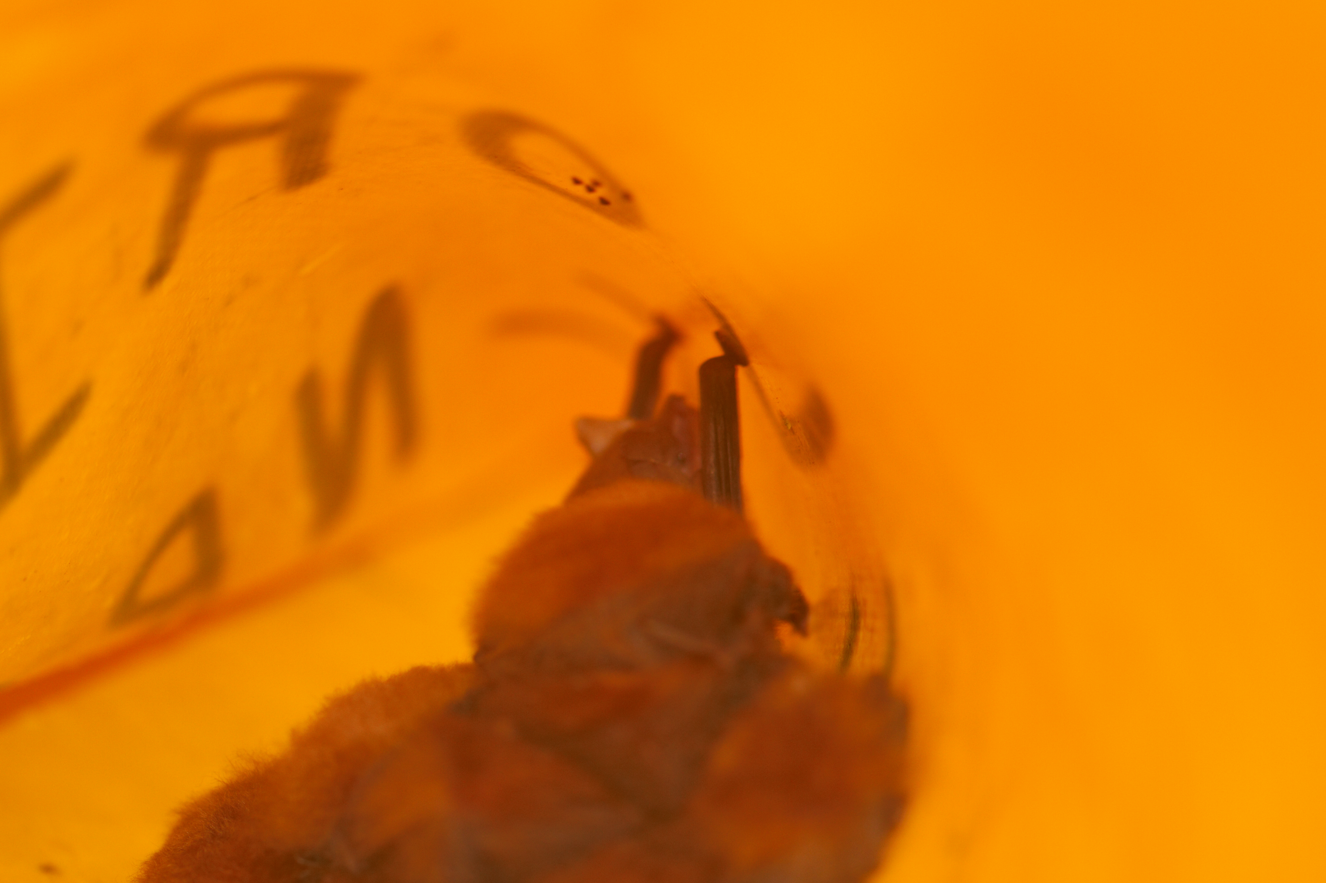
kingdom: Animalia
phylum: Chordata
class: Mammalia
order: Chiroptera
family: Thyropteridae
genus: Thyroptera
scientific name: Thyroptera discifera
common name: Peters's disk-winged bat
